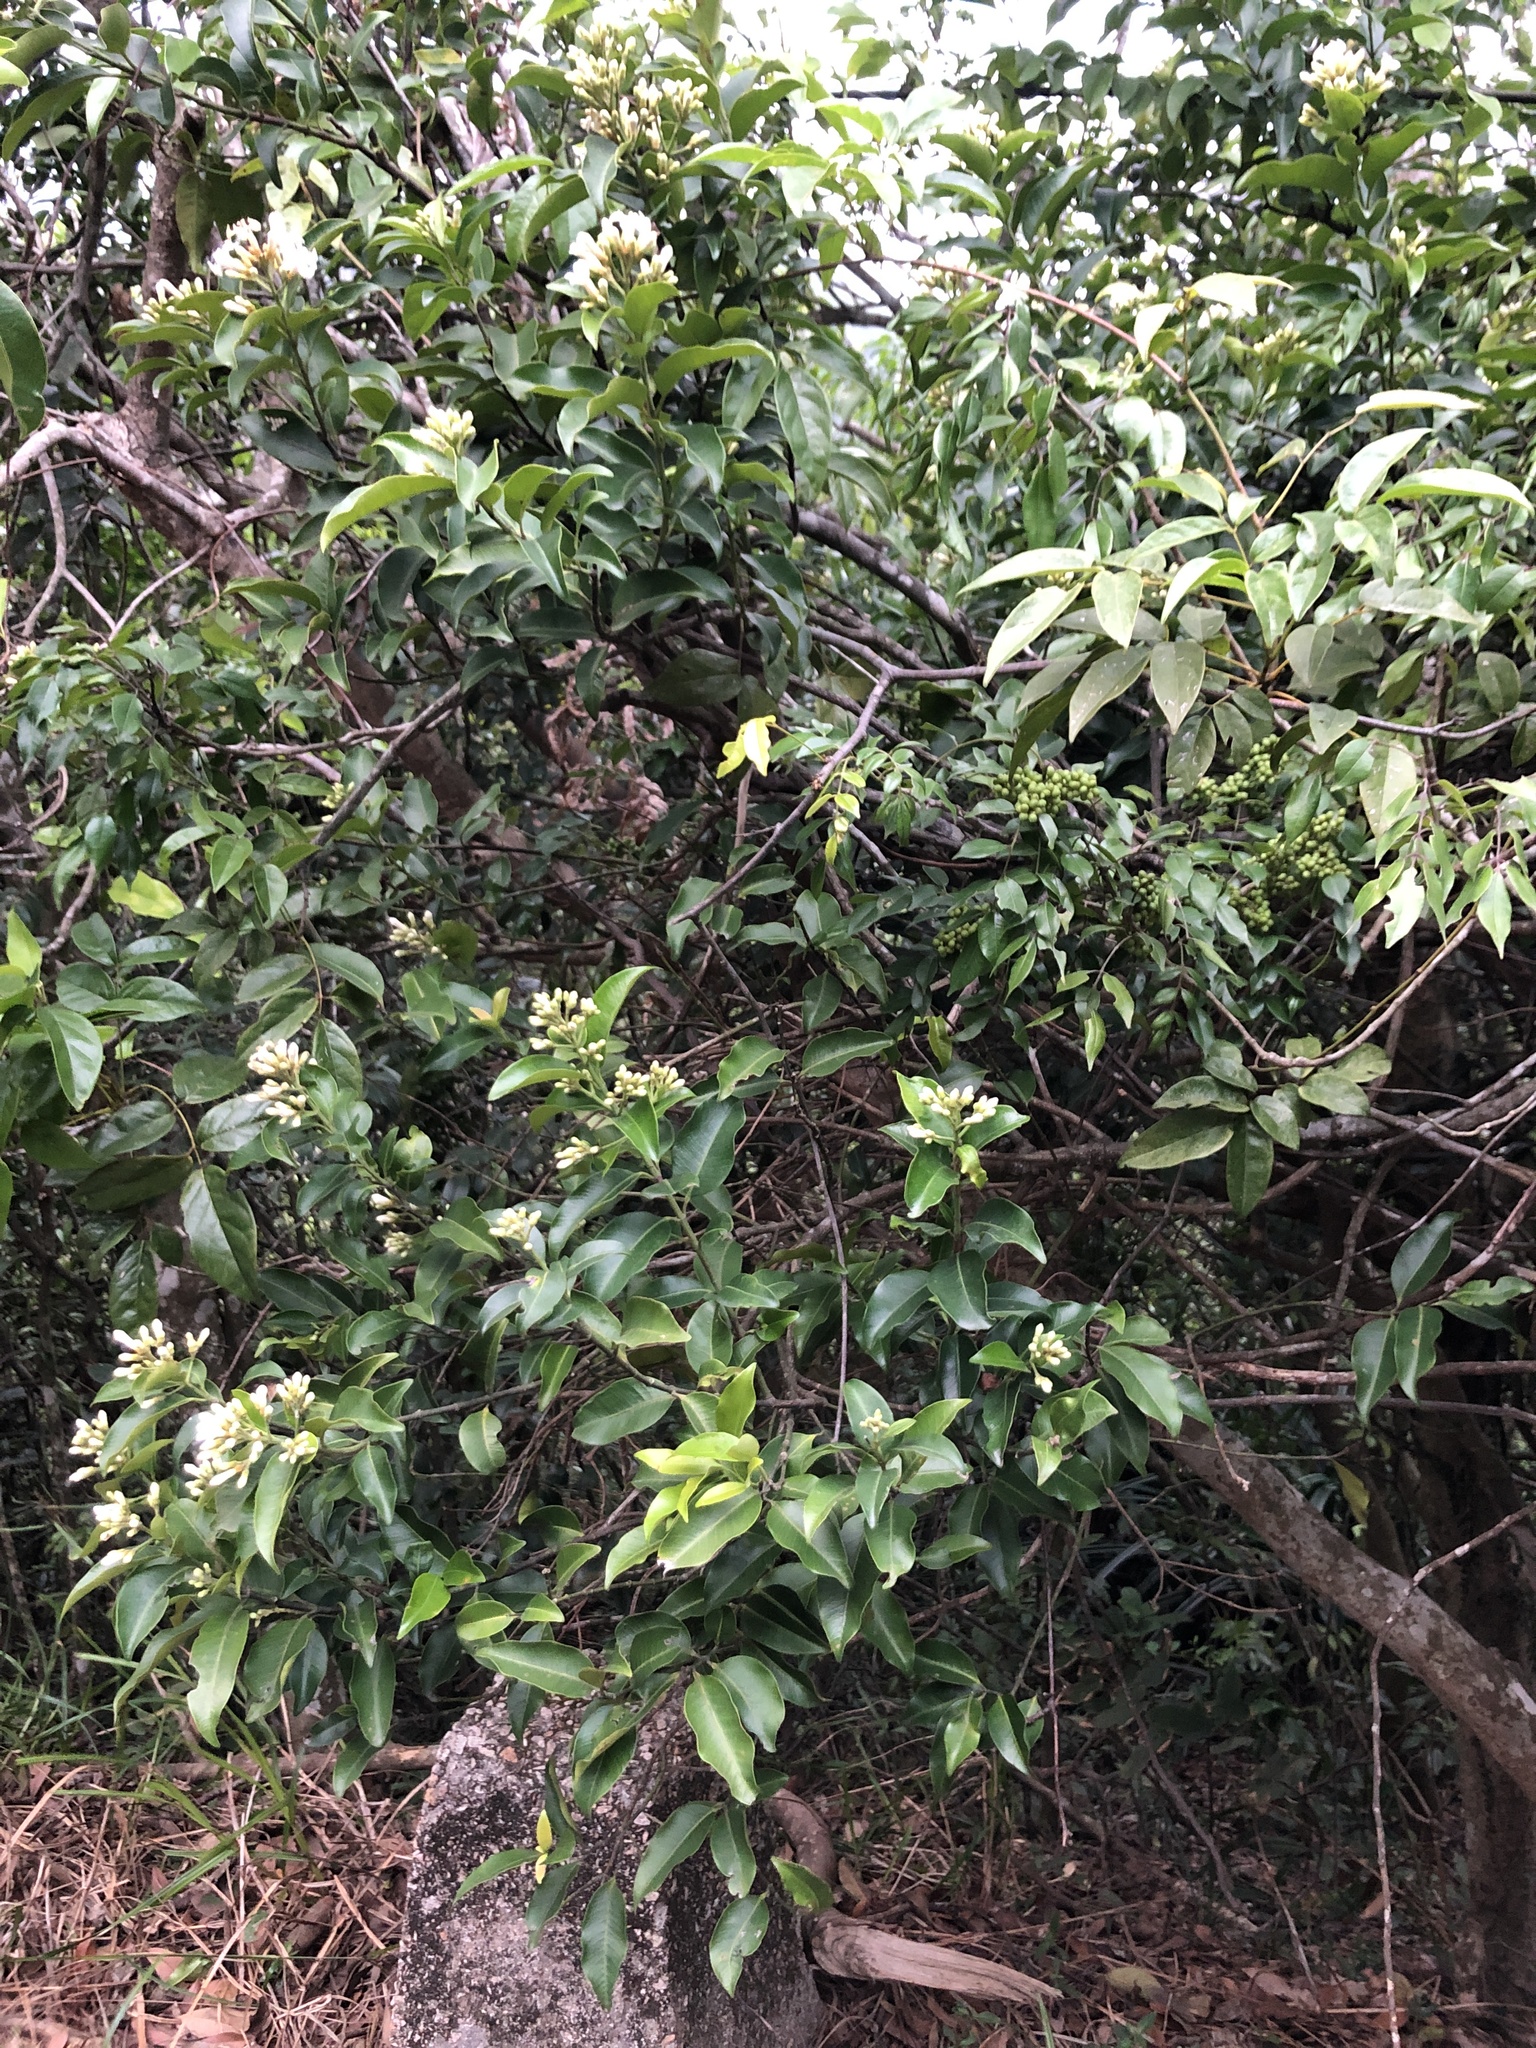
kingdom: Plantae
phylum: Tracheophyta
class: Magnoliopsida
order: Gentianales
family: Apocynaceae
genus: Melodinus
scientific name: Melodinus suaveolens
